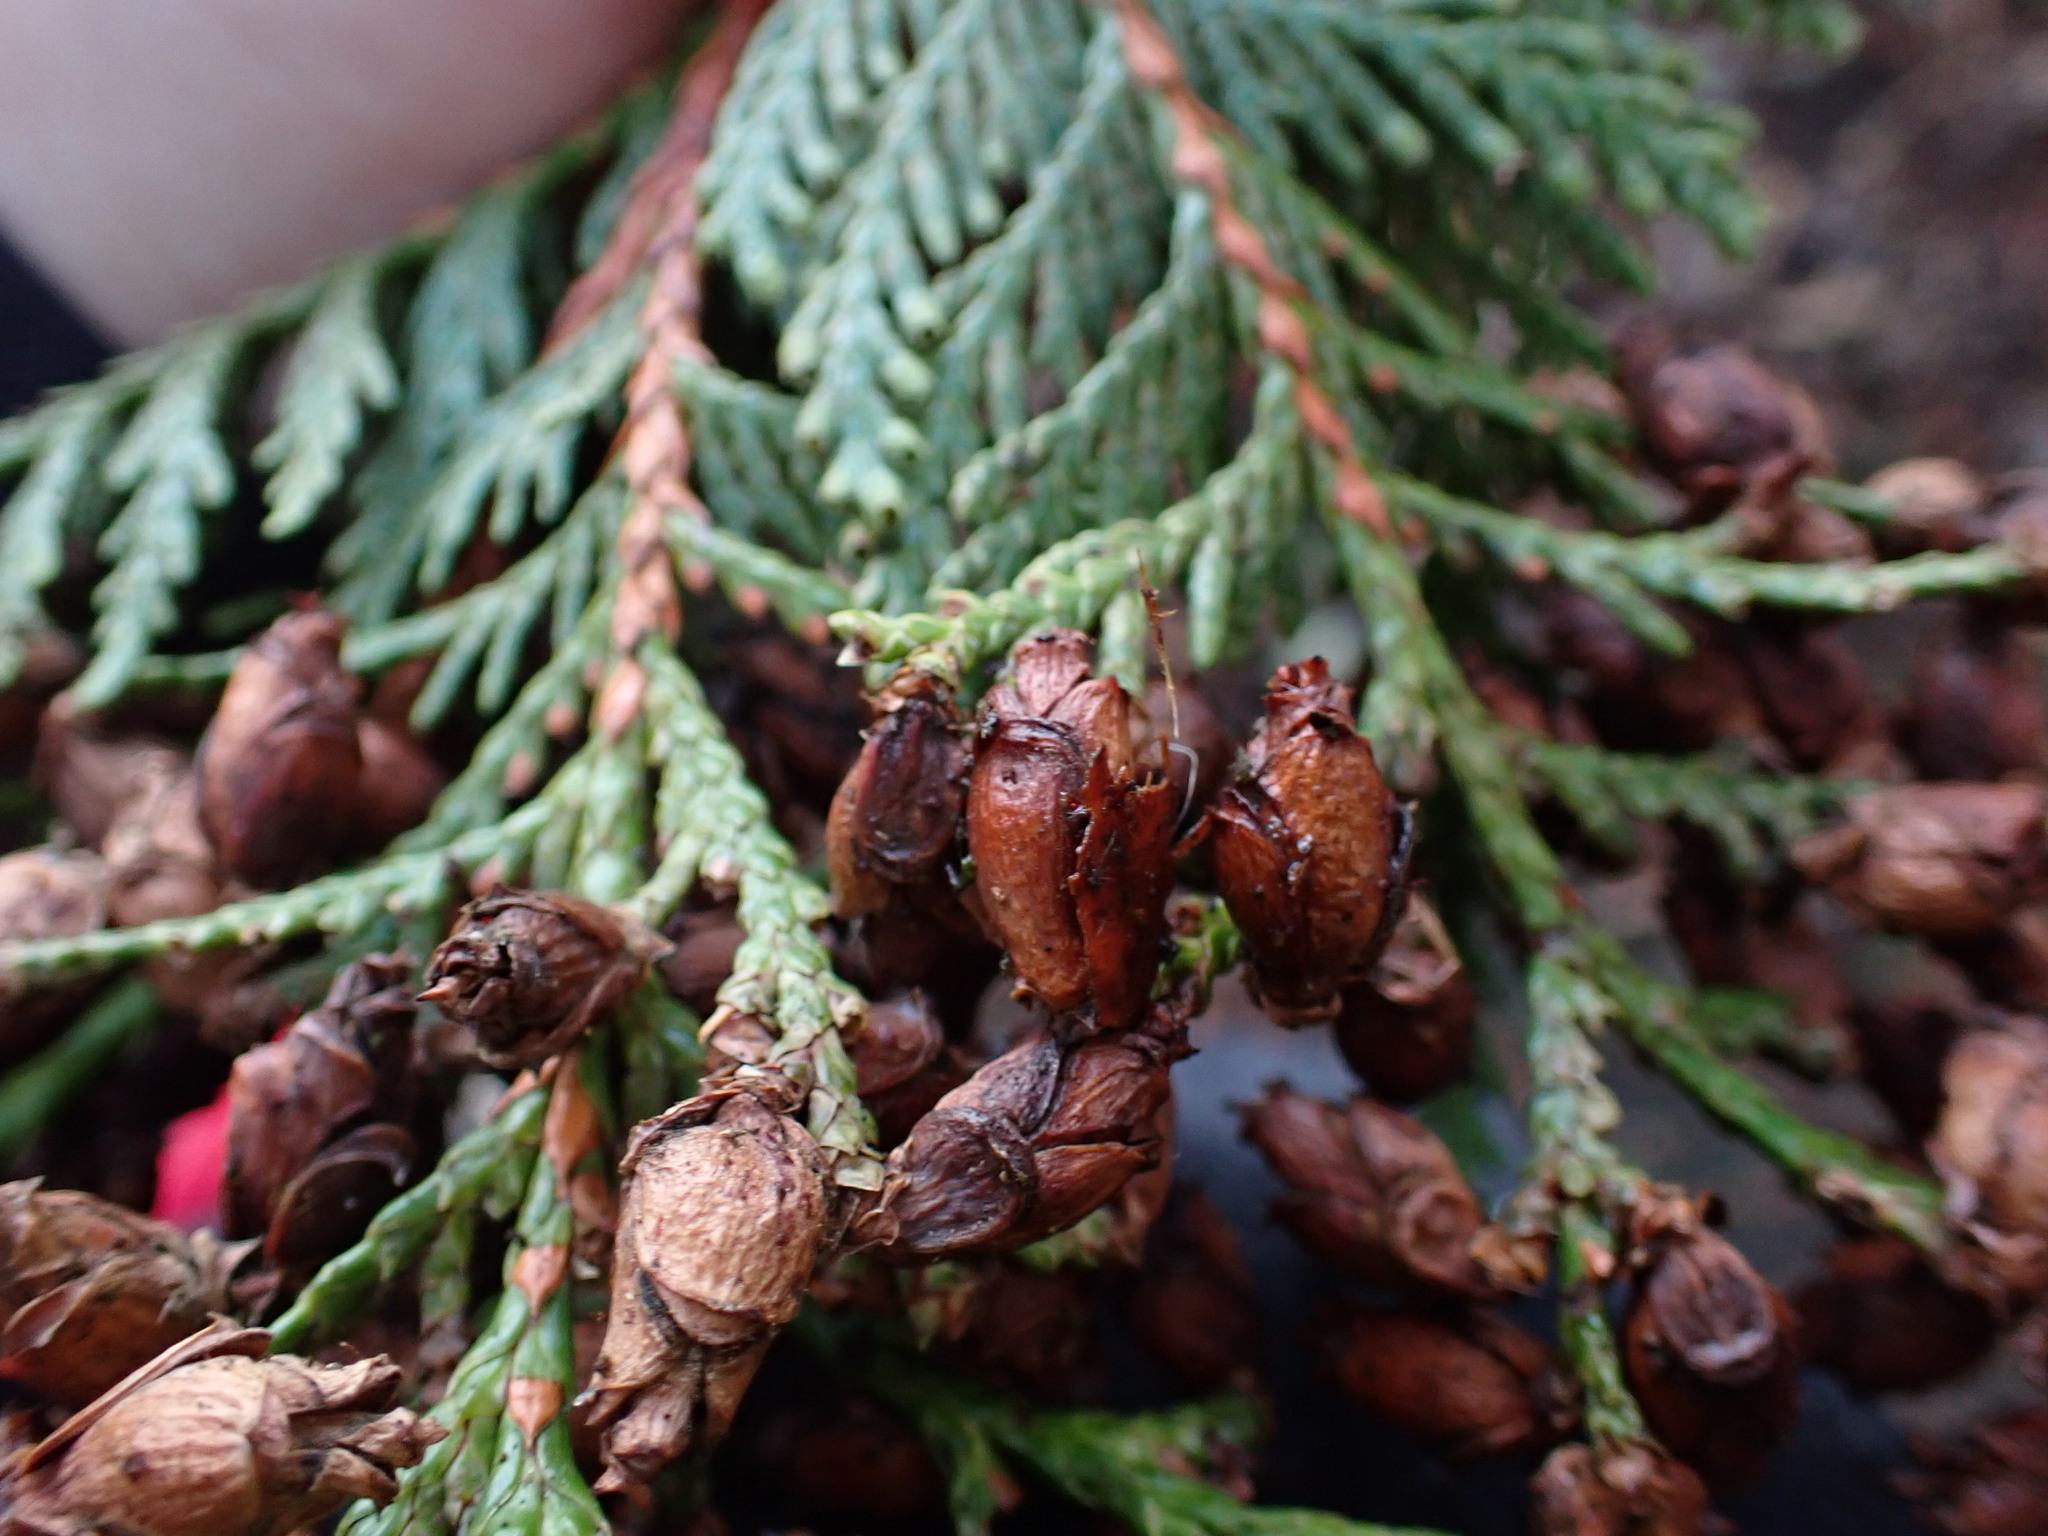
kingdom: Plantae
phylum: Tracheophyta
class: Pinopsida
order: Pinales
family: Cupressaceae
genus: Thuja
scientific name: Thuja plicata
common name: Western red-cedar
